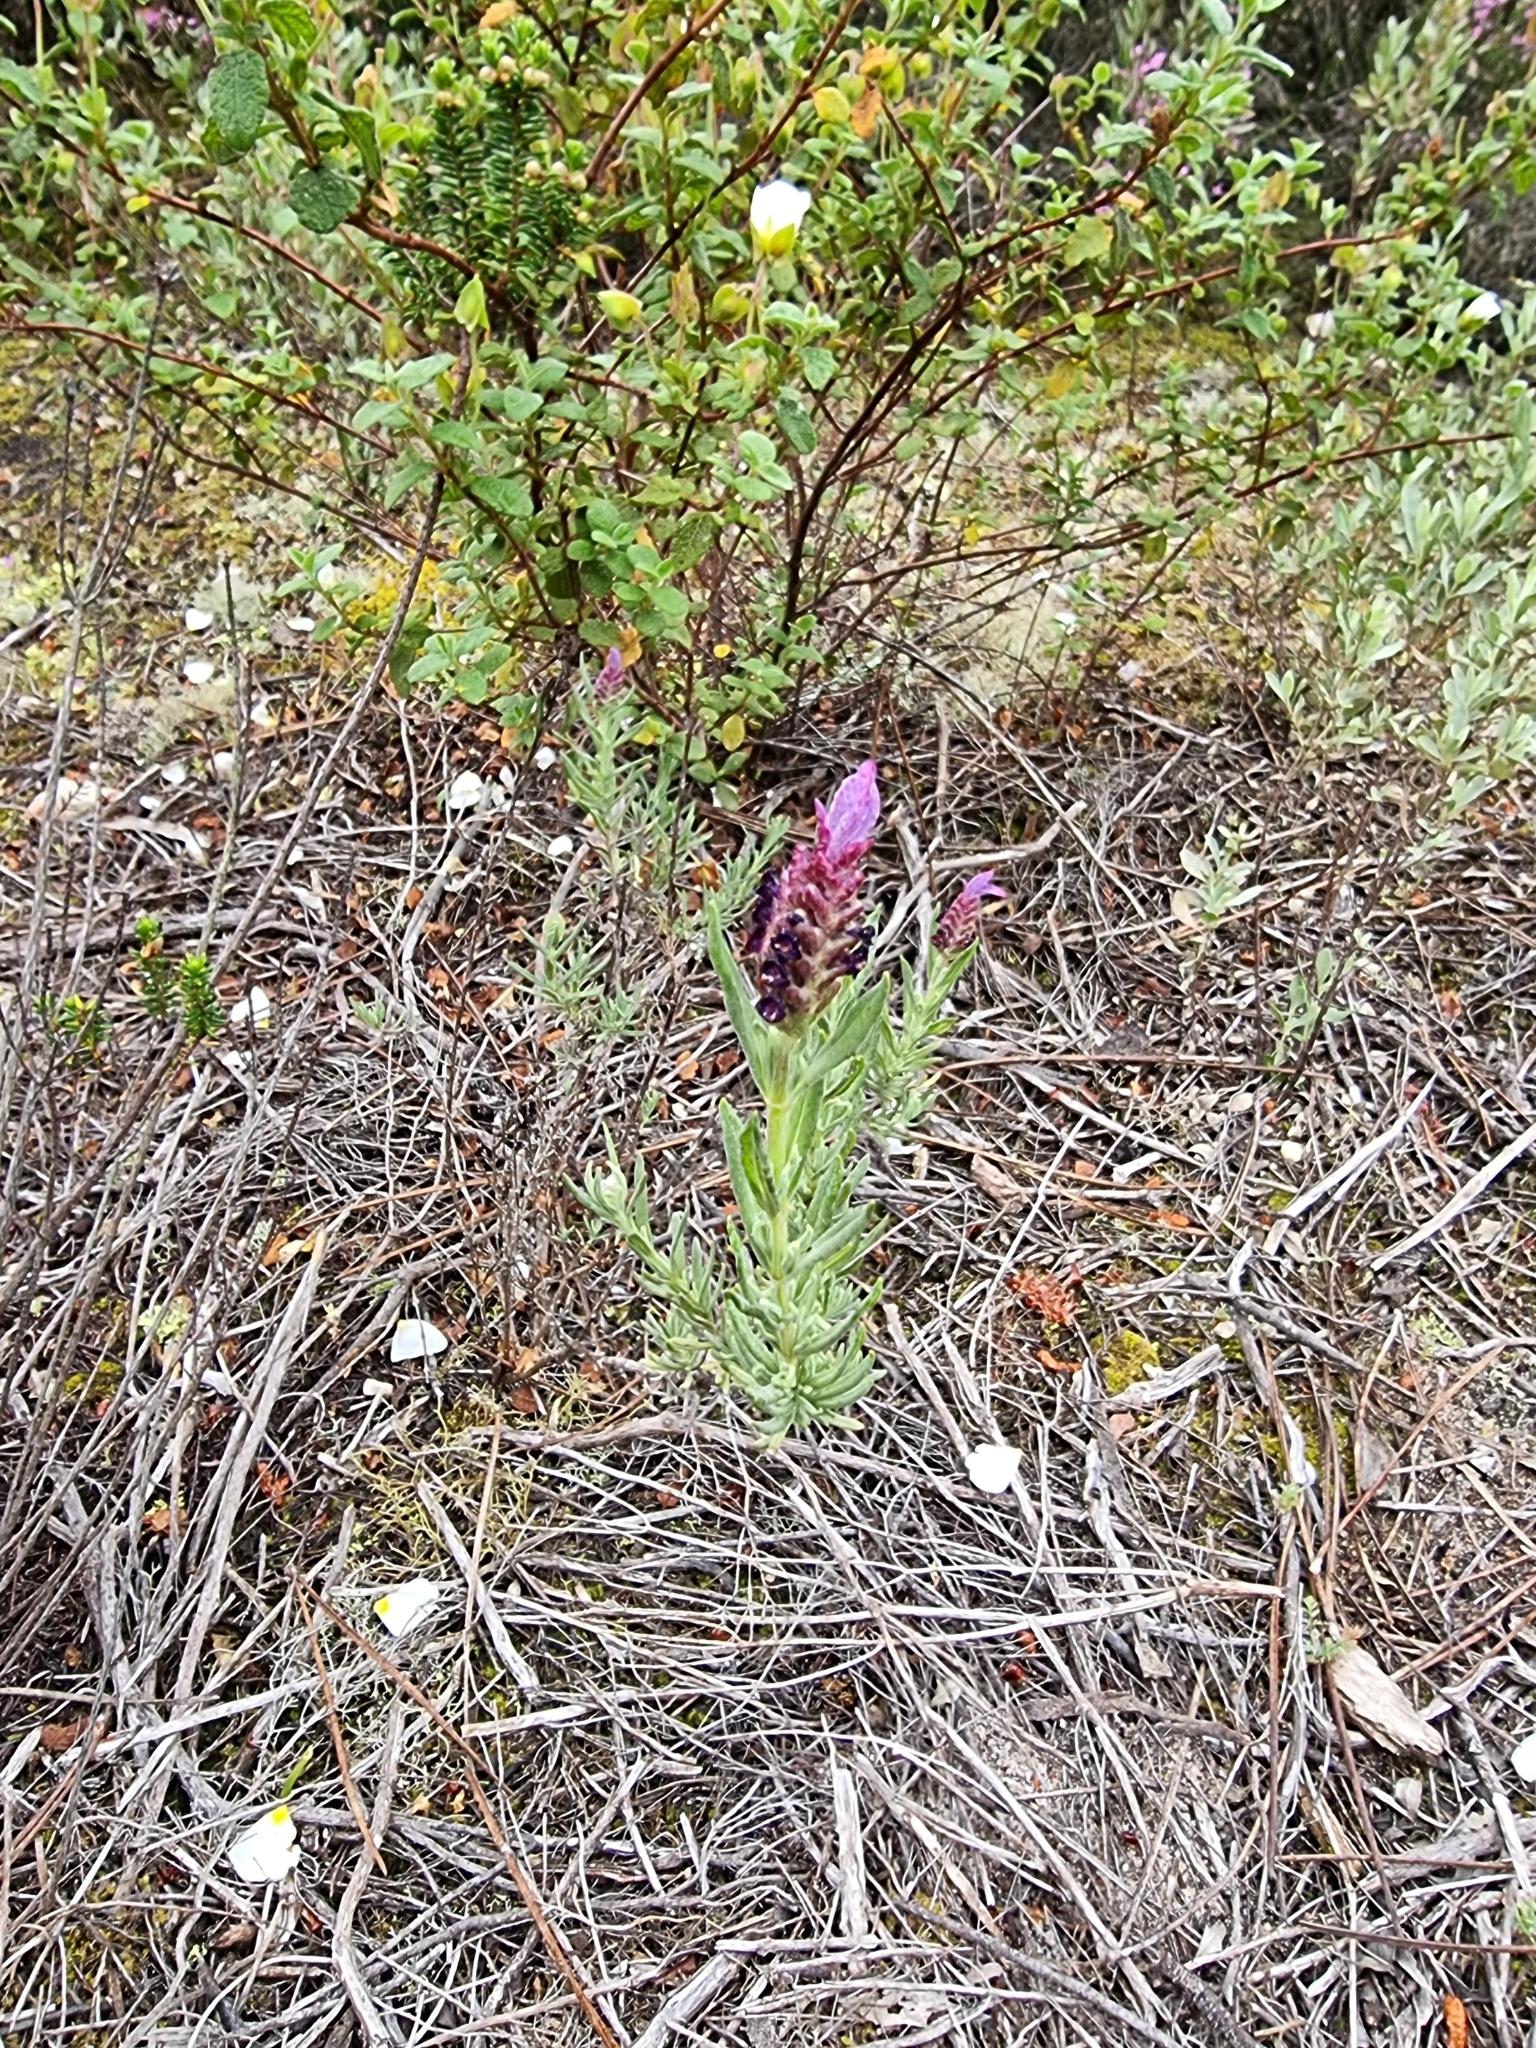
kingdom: Plantae
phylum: Tracheophyta
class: Magnoliopsida
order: Lamiales
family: Lamiaceae
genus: Lavandula
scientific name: Lavandula stoechas
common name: French lavender
